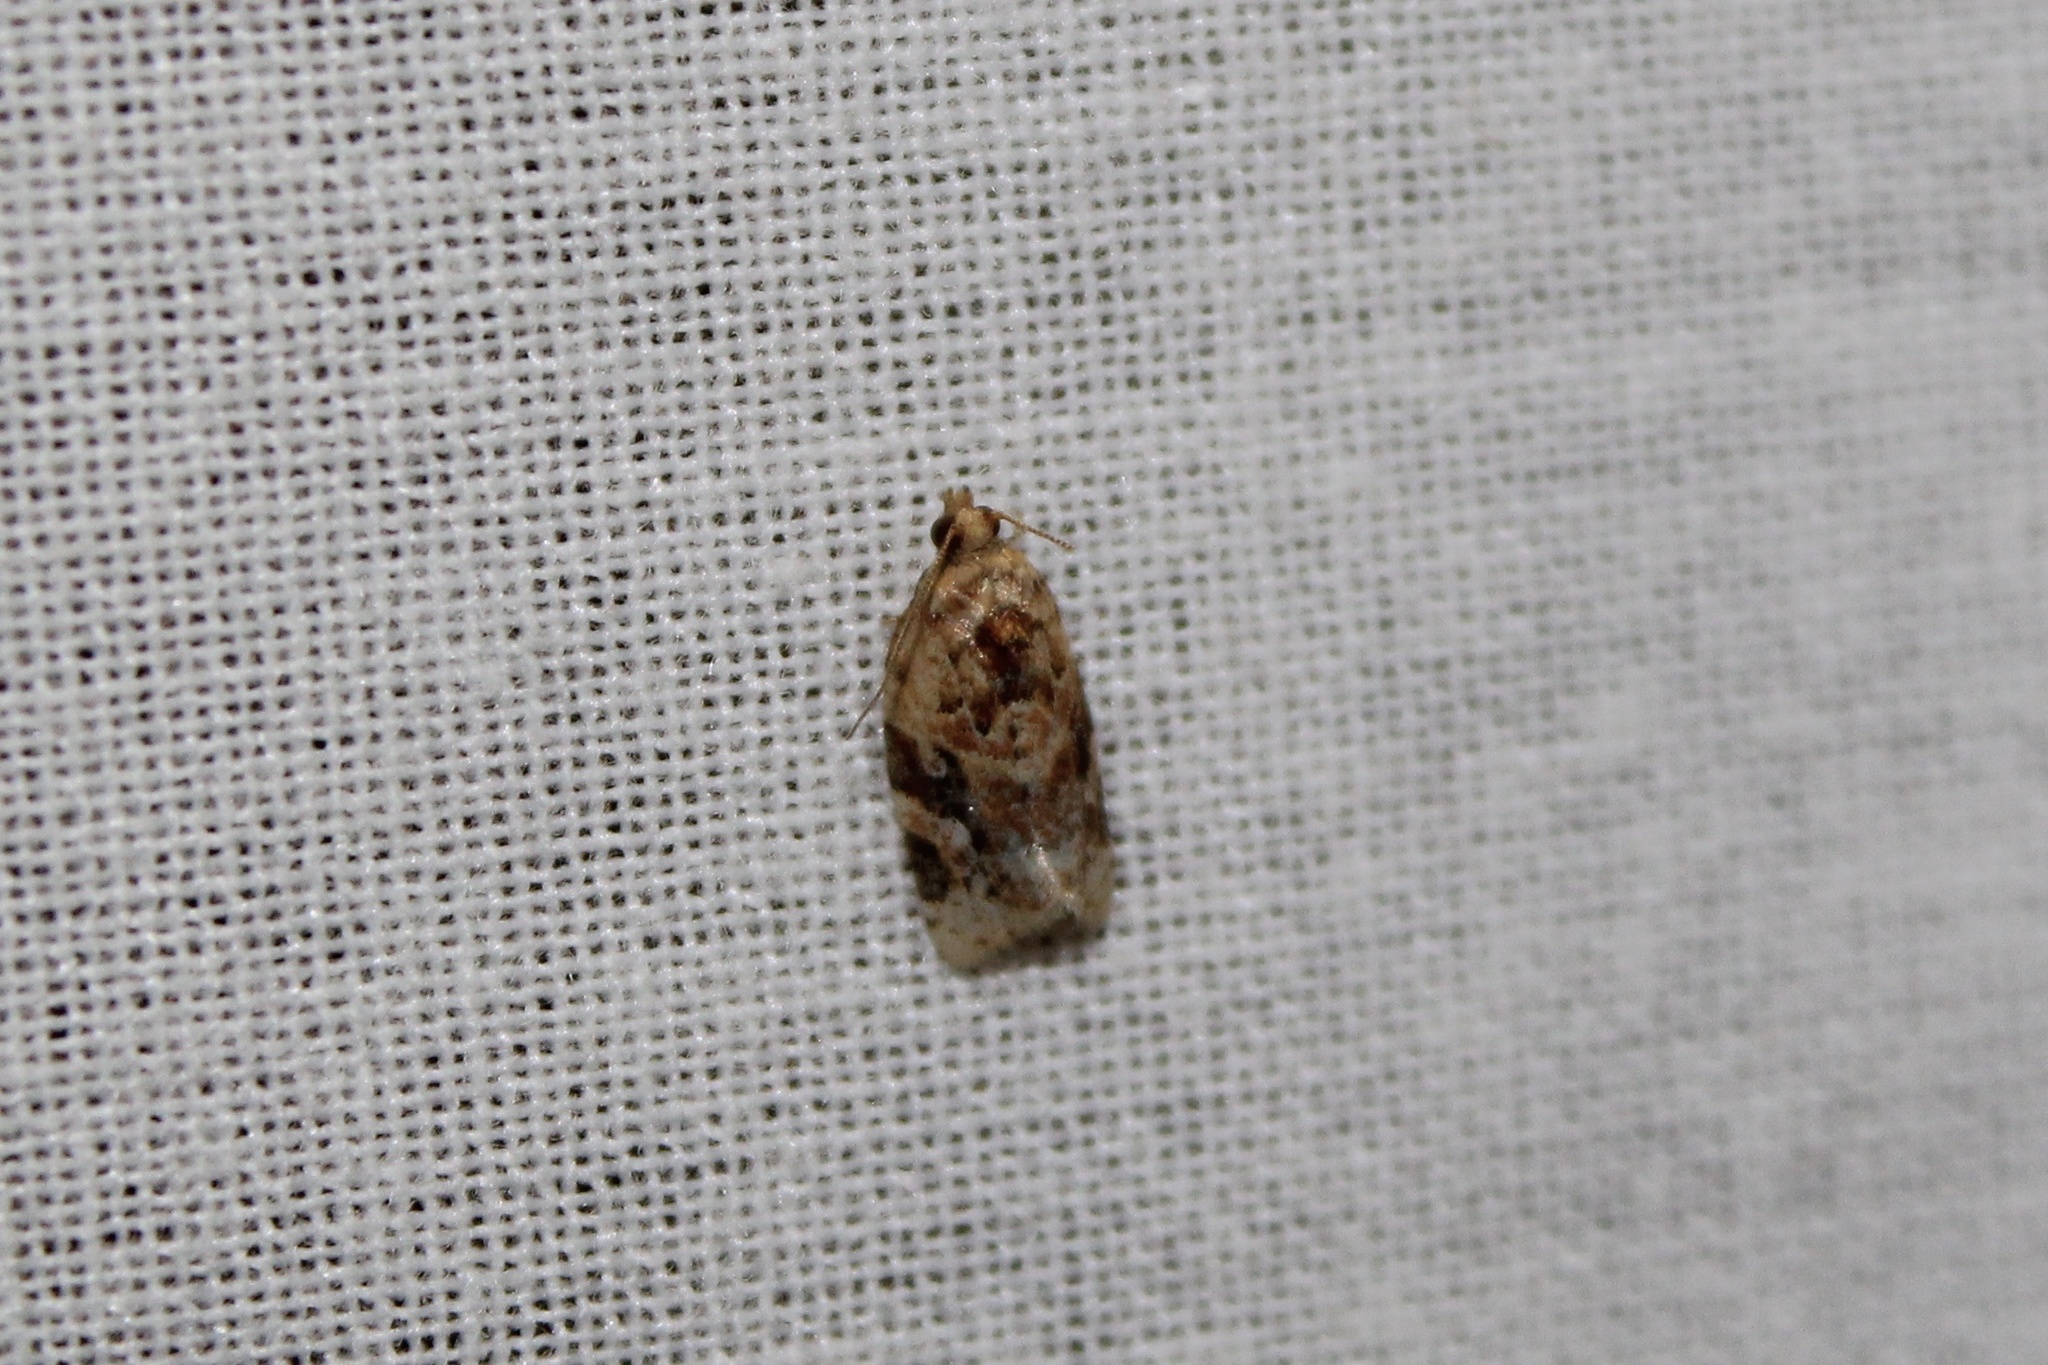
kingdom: Animalia
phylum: Arthropoda
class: Insecta
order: Lepidoptera
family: Tortricidae
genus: Argyrotaenia
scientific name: Argyrotaenia velutinana
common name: Red-banded leafroller moth
